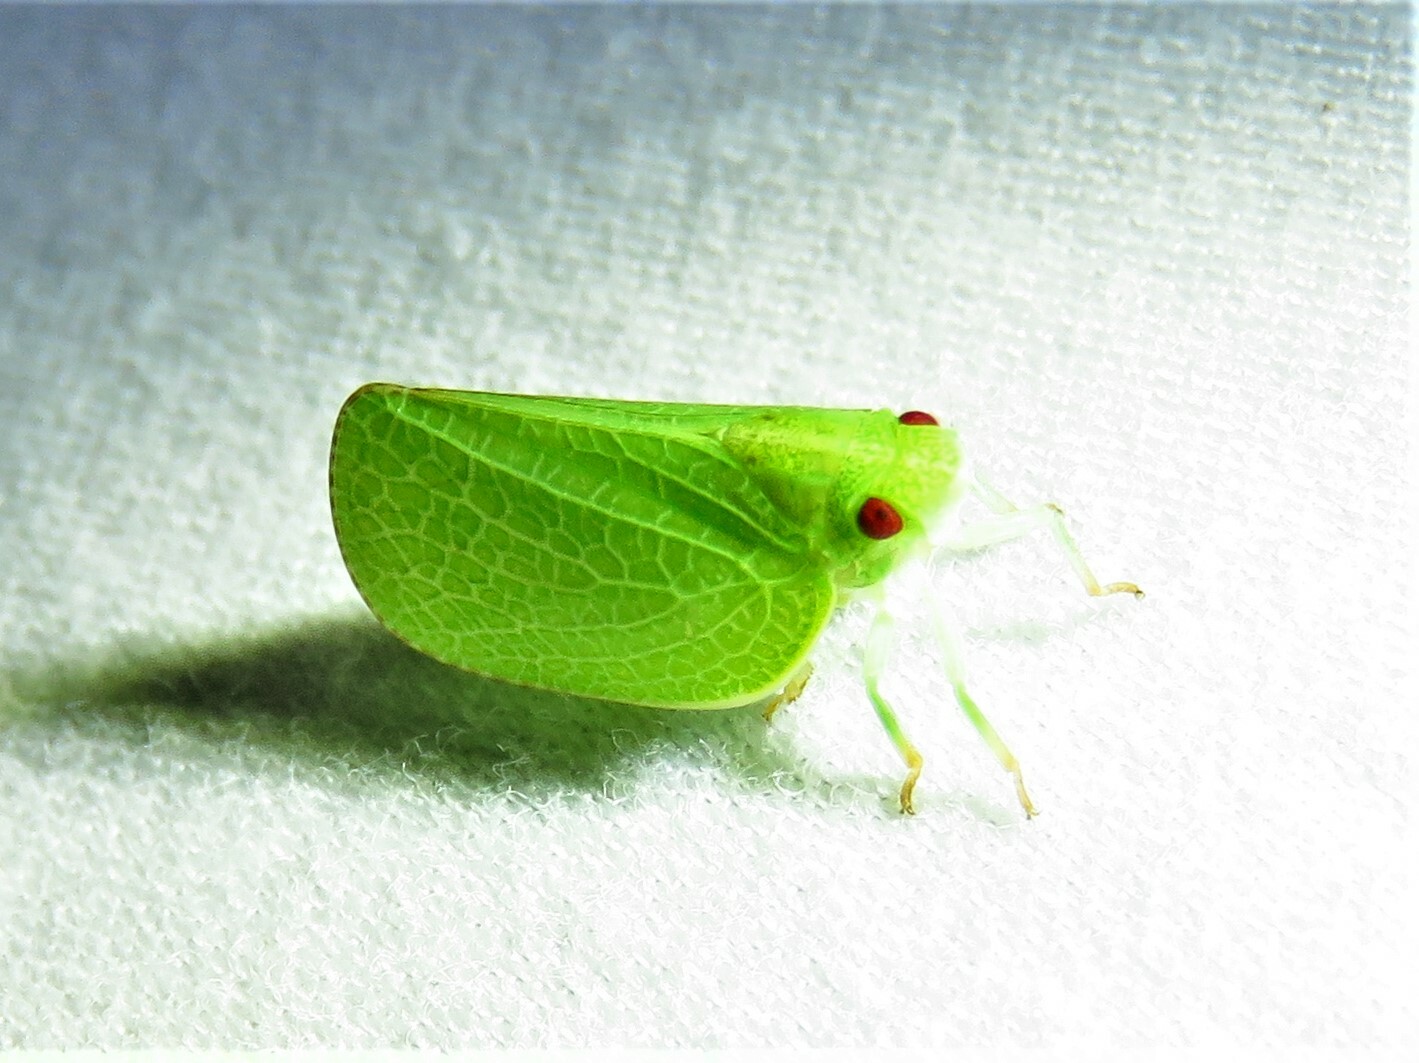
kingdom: Animalia
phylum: Arthropoda
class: Insecta
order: Hemiptera
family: Acanaloniidae
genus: Acanalonia
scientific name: Acanalonia conica
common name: Green cone-headed planthopper
